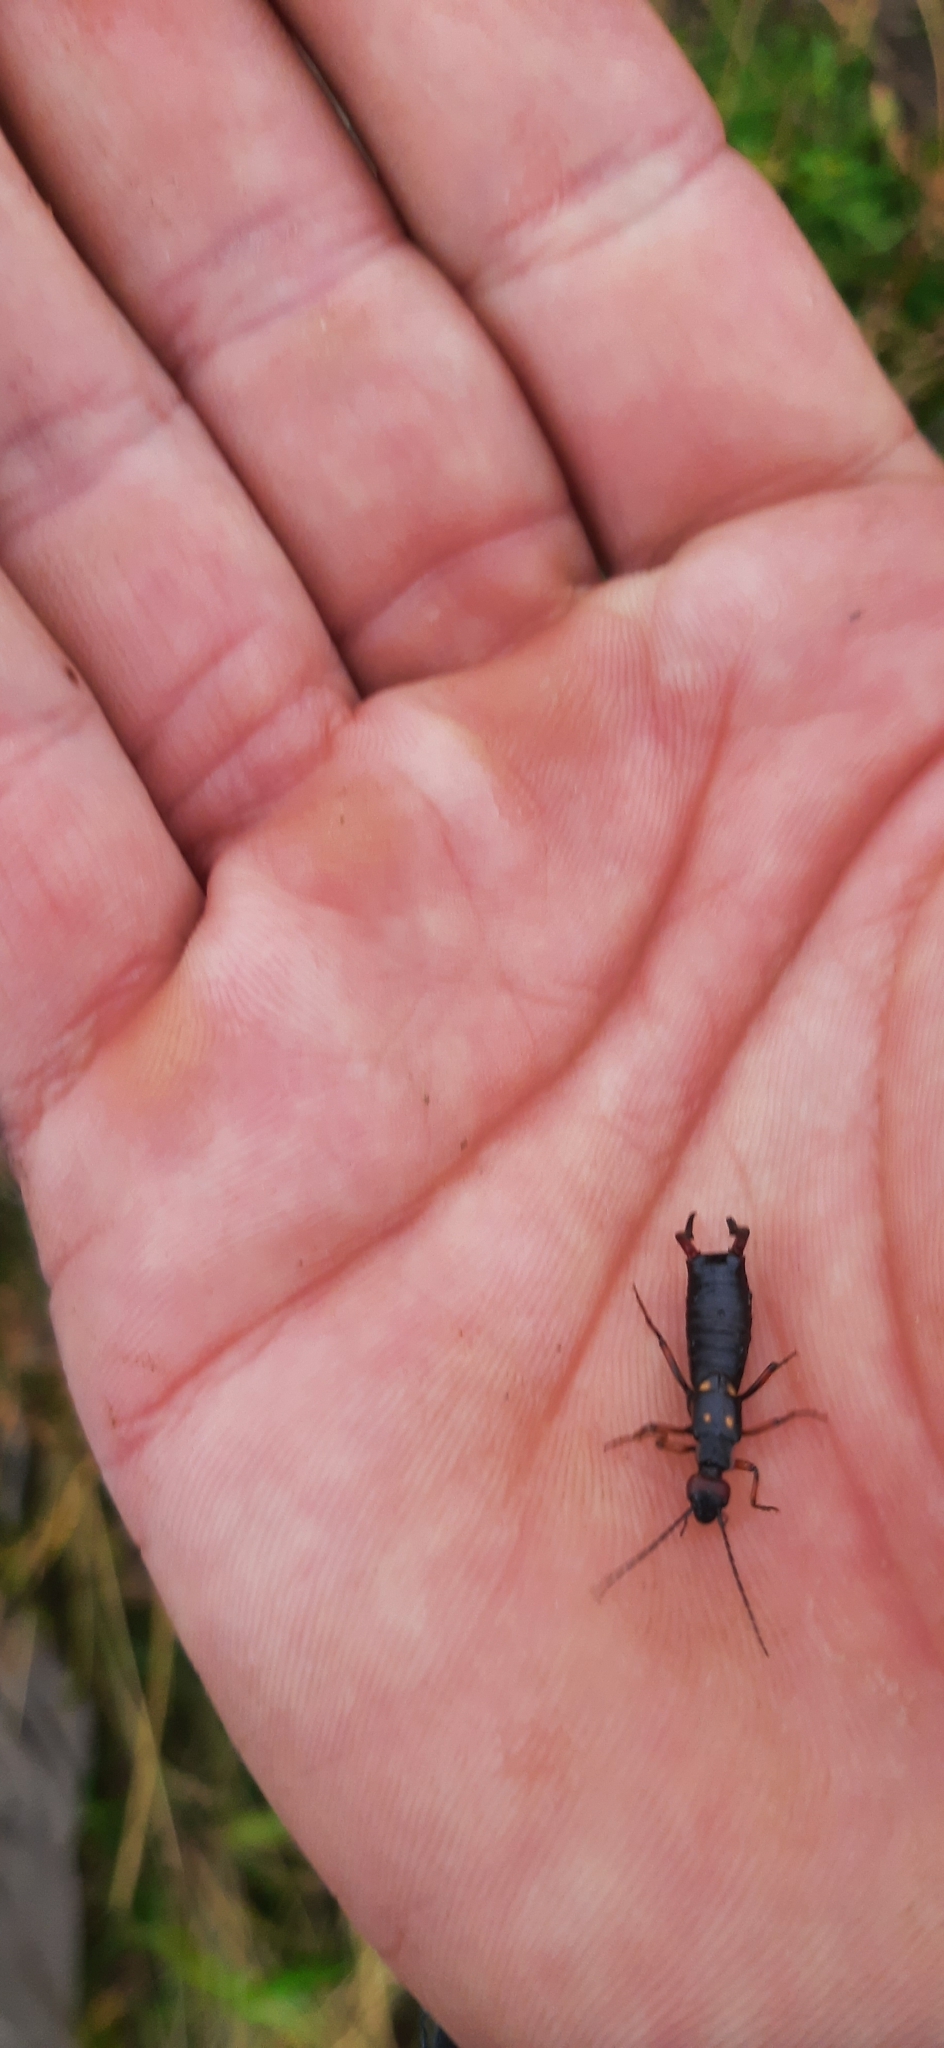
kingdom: Animalia
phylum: Arthropoda
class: Insecta
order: Dermaptera
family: Forficulidae
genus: Anechura
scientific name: Anechura bipunctata
